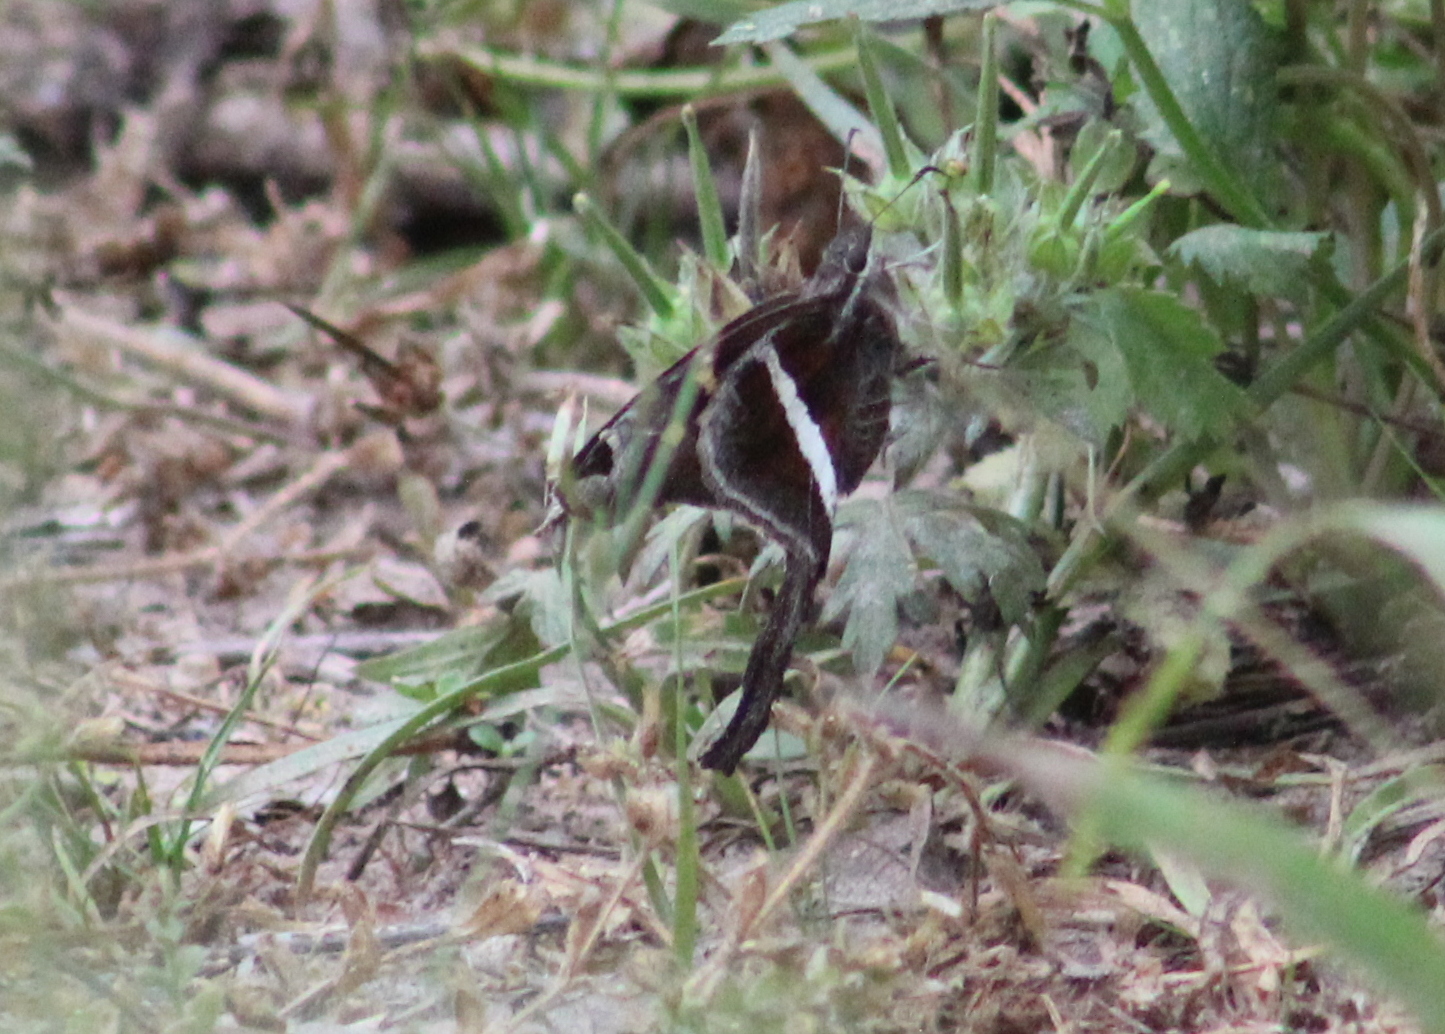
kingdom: Animalia
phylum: Arthropoda
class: Insecta
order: Lepidoptera
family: Hesperiidae
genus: Chioides
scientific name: Chioides catillus
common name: Silverbanded skipper
